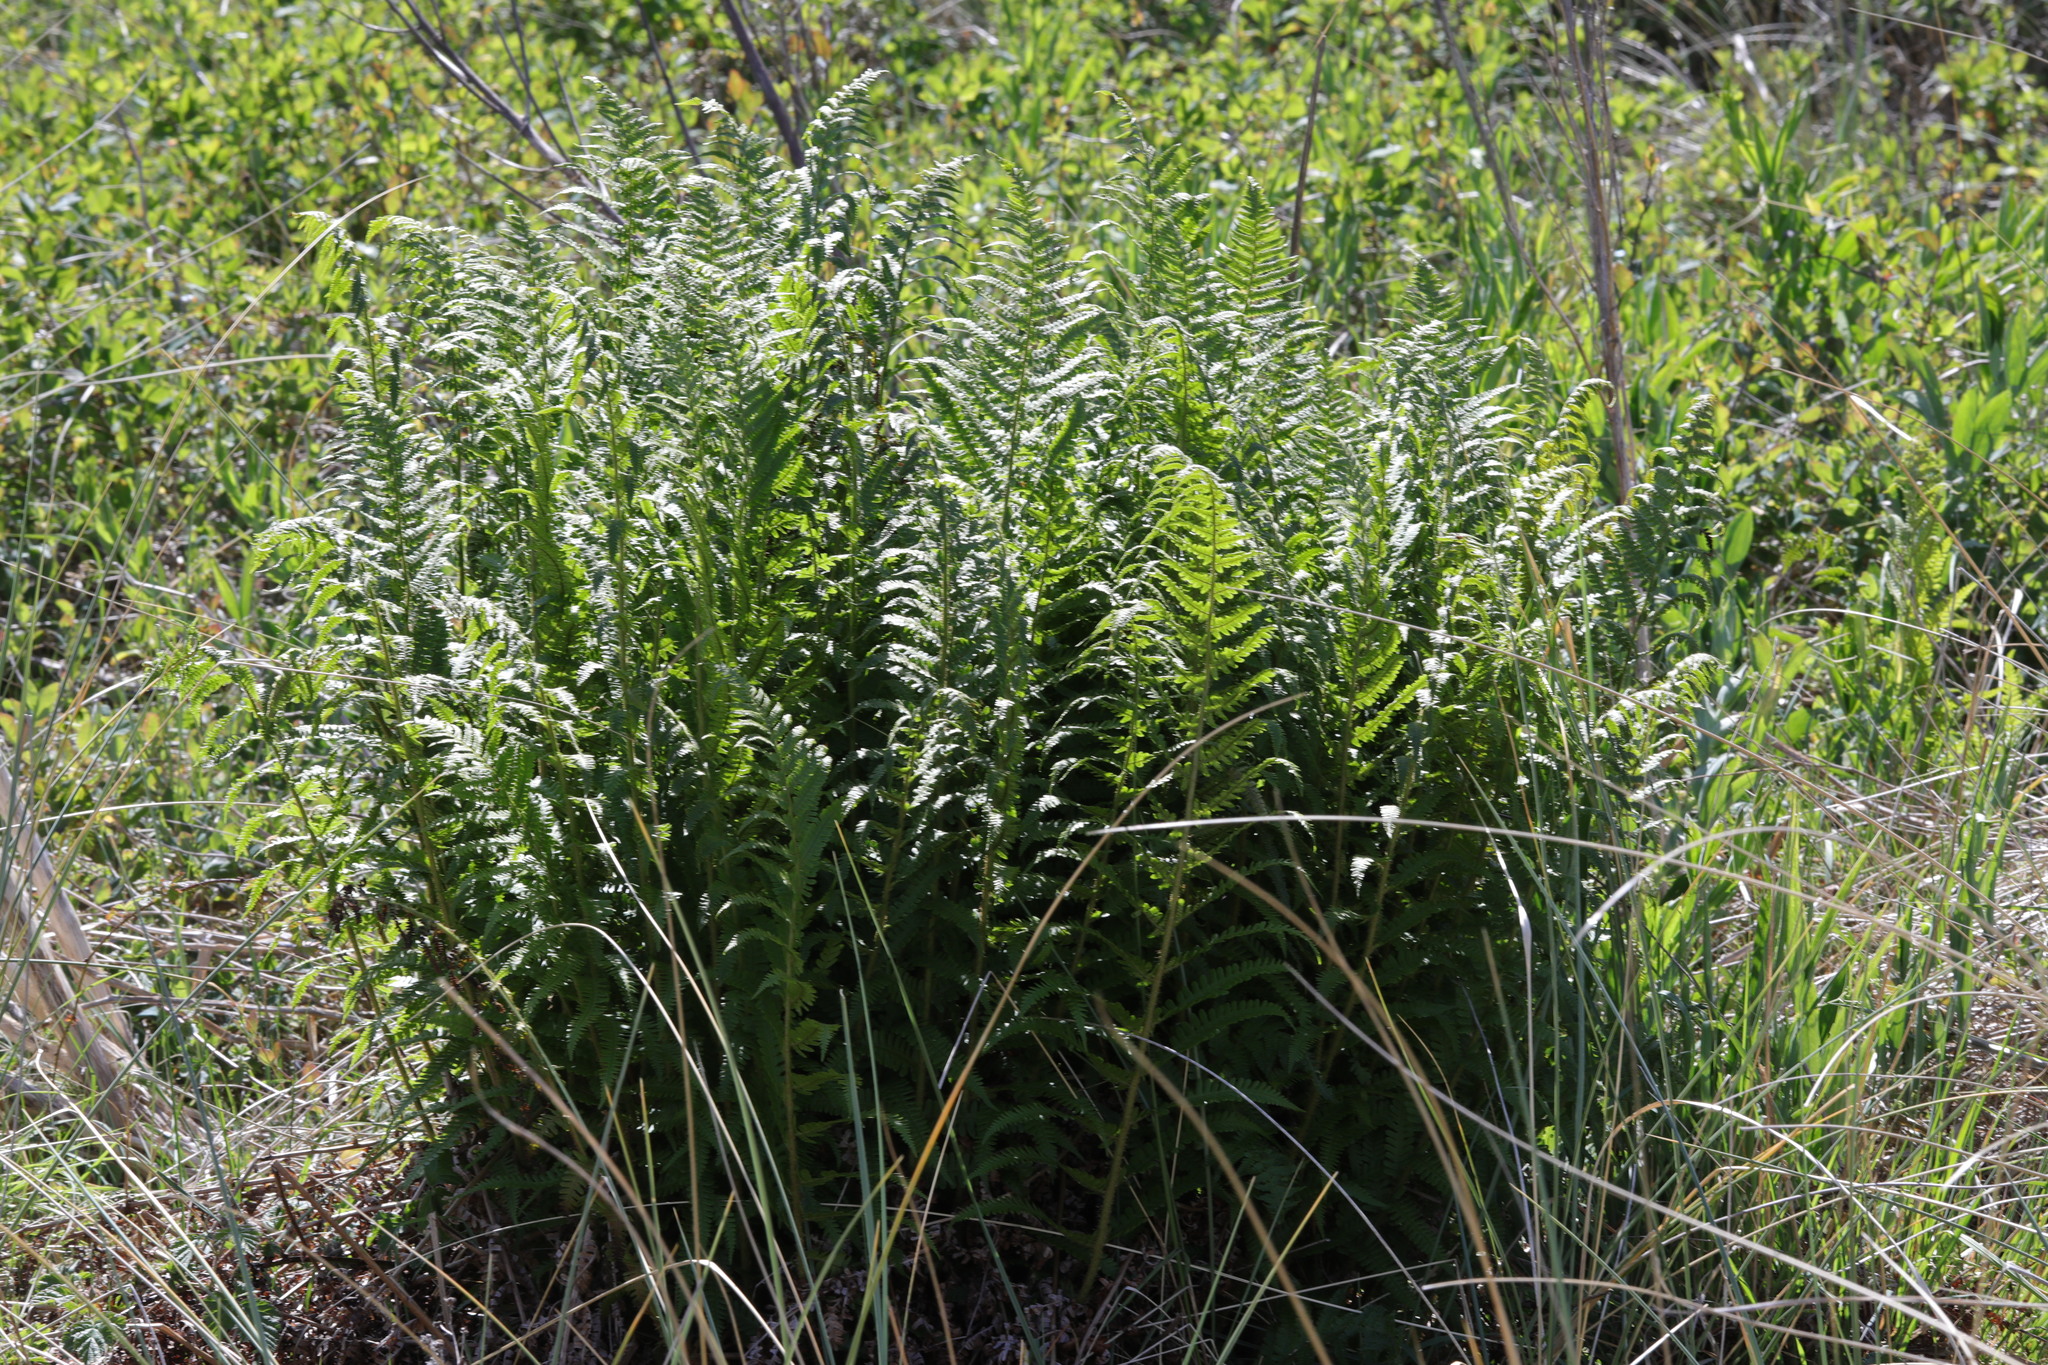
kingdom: Plantae
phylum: Tracheophyta
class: Polypodiopsida
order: Polypodiales
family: Dryopteridaceae
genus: Dryopteris
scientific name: Dryopteris filix-mas
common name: Male fern
